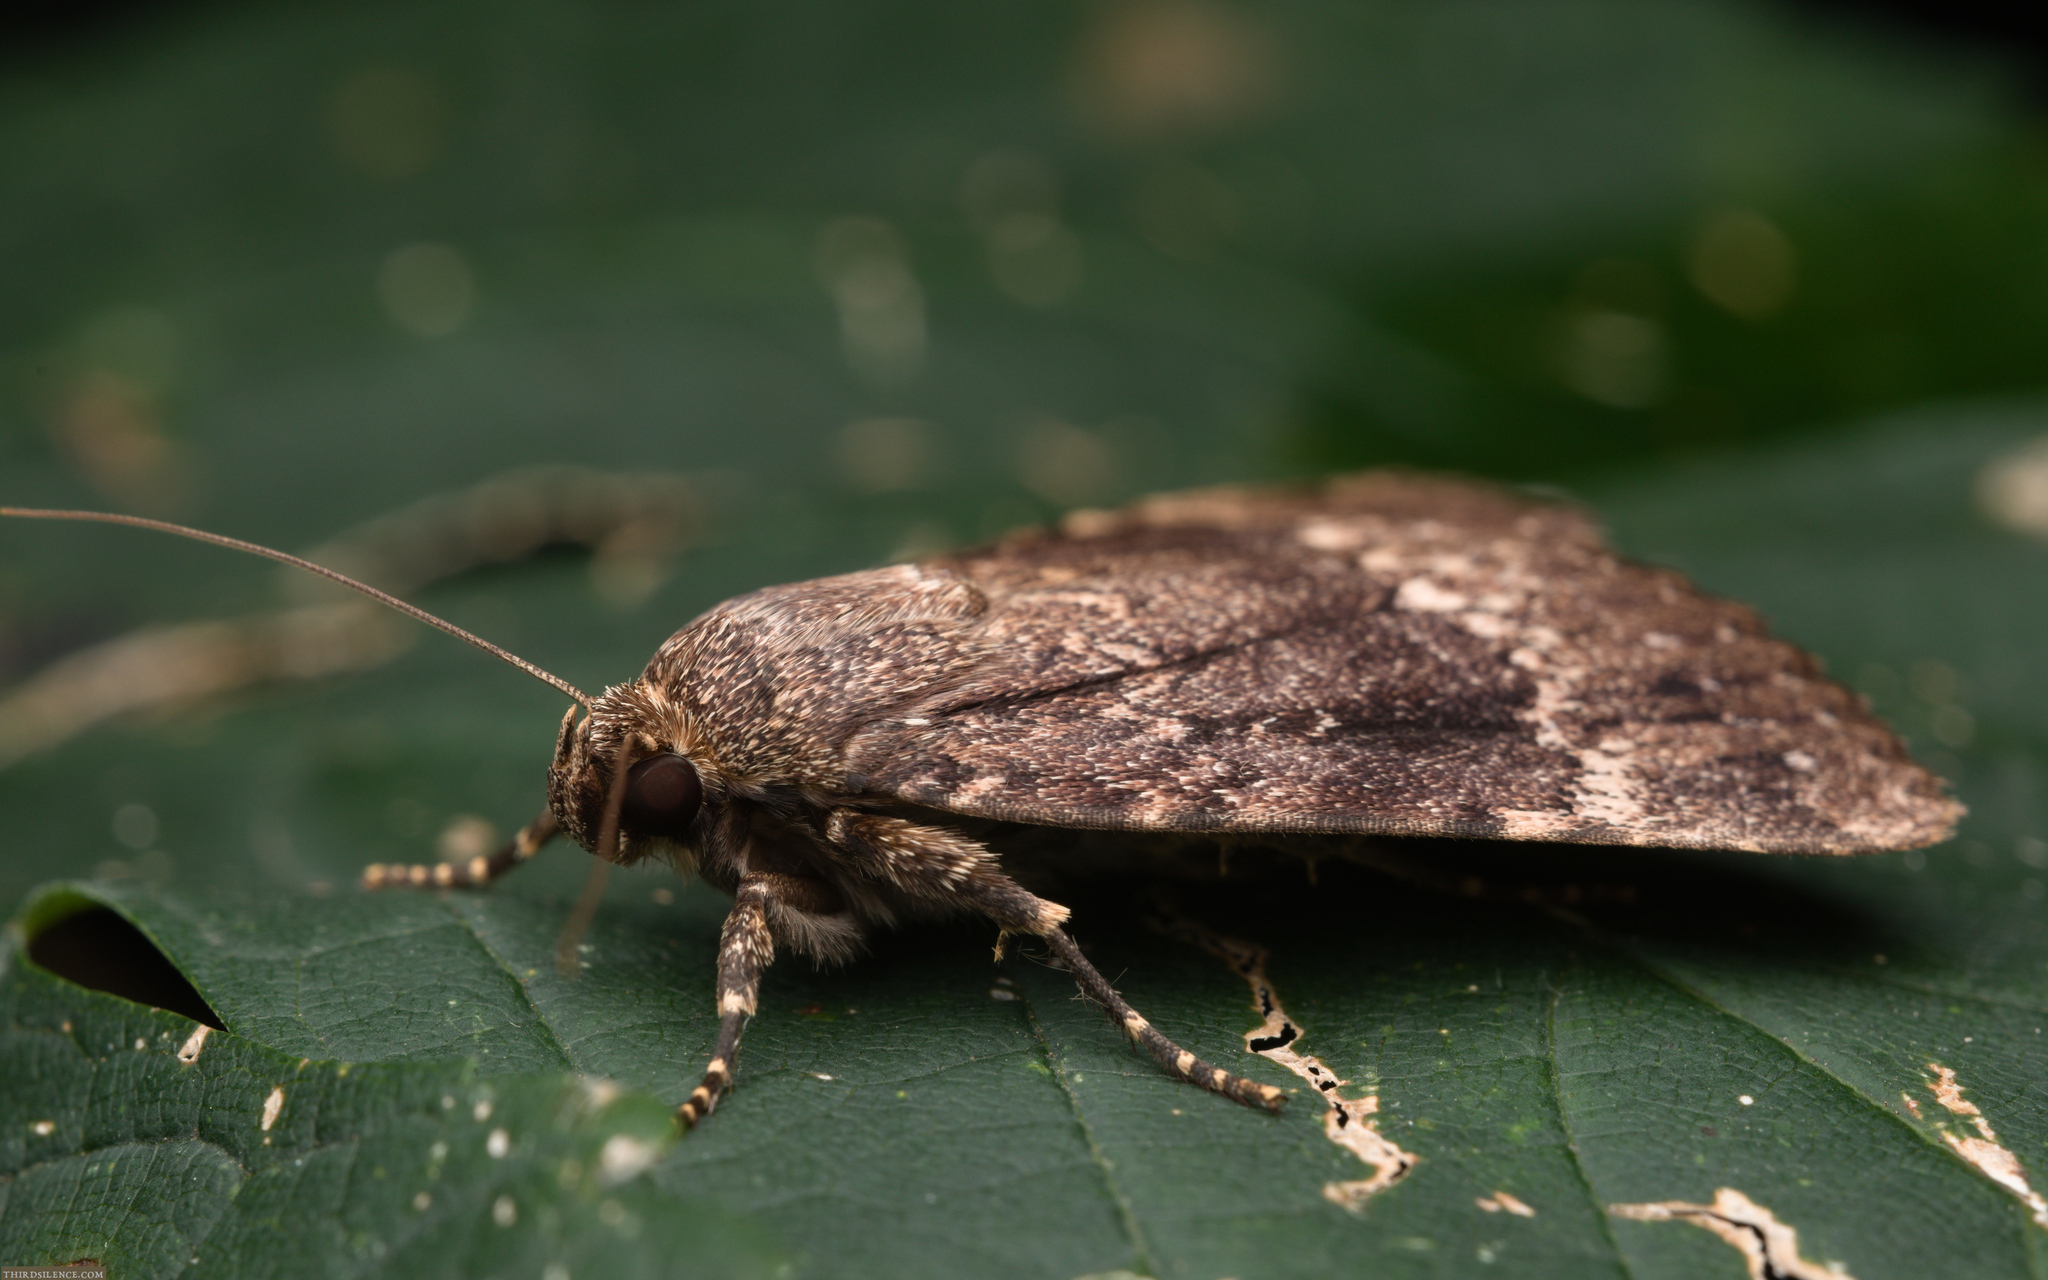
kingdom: Animalia
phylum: Arthropoda
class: Insecta
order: Lepidoptera
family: Noctuidae
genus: Amphipyra
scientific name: Amphipyra pyramidea
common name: Copper underwing
